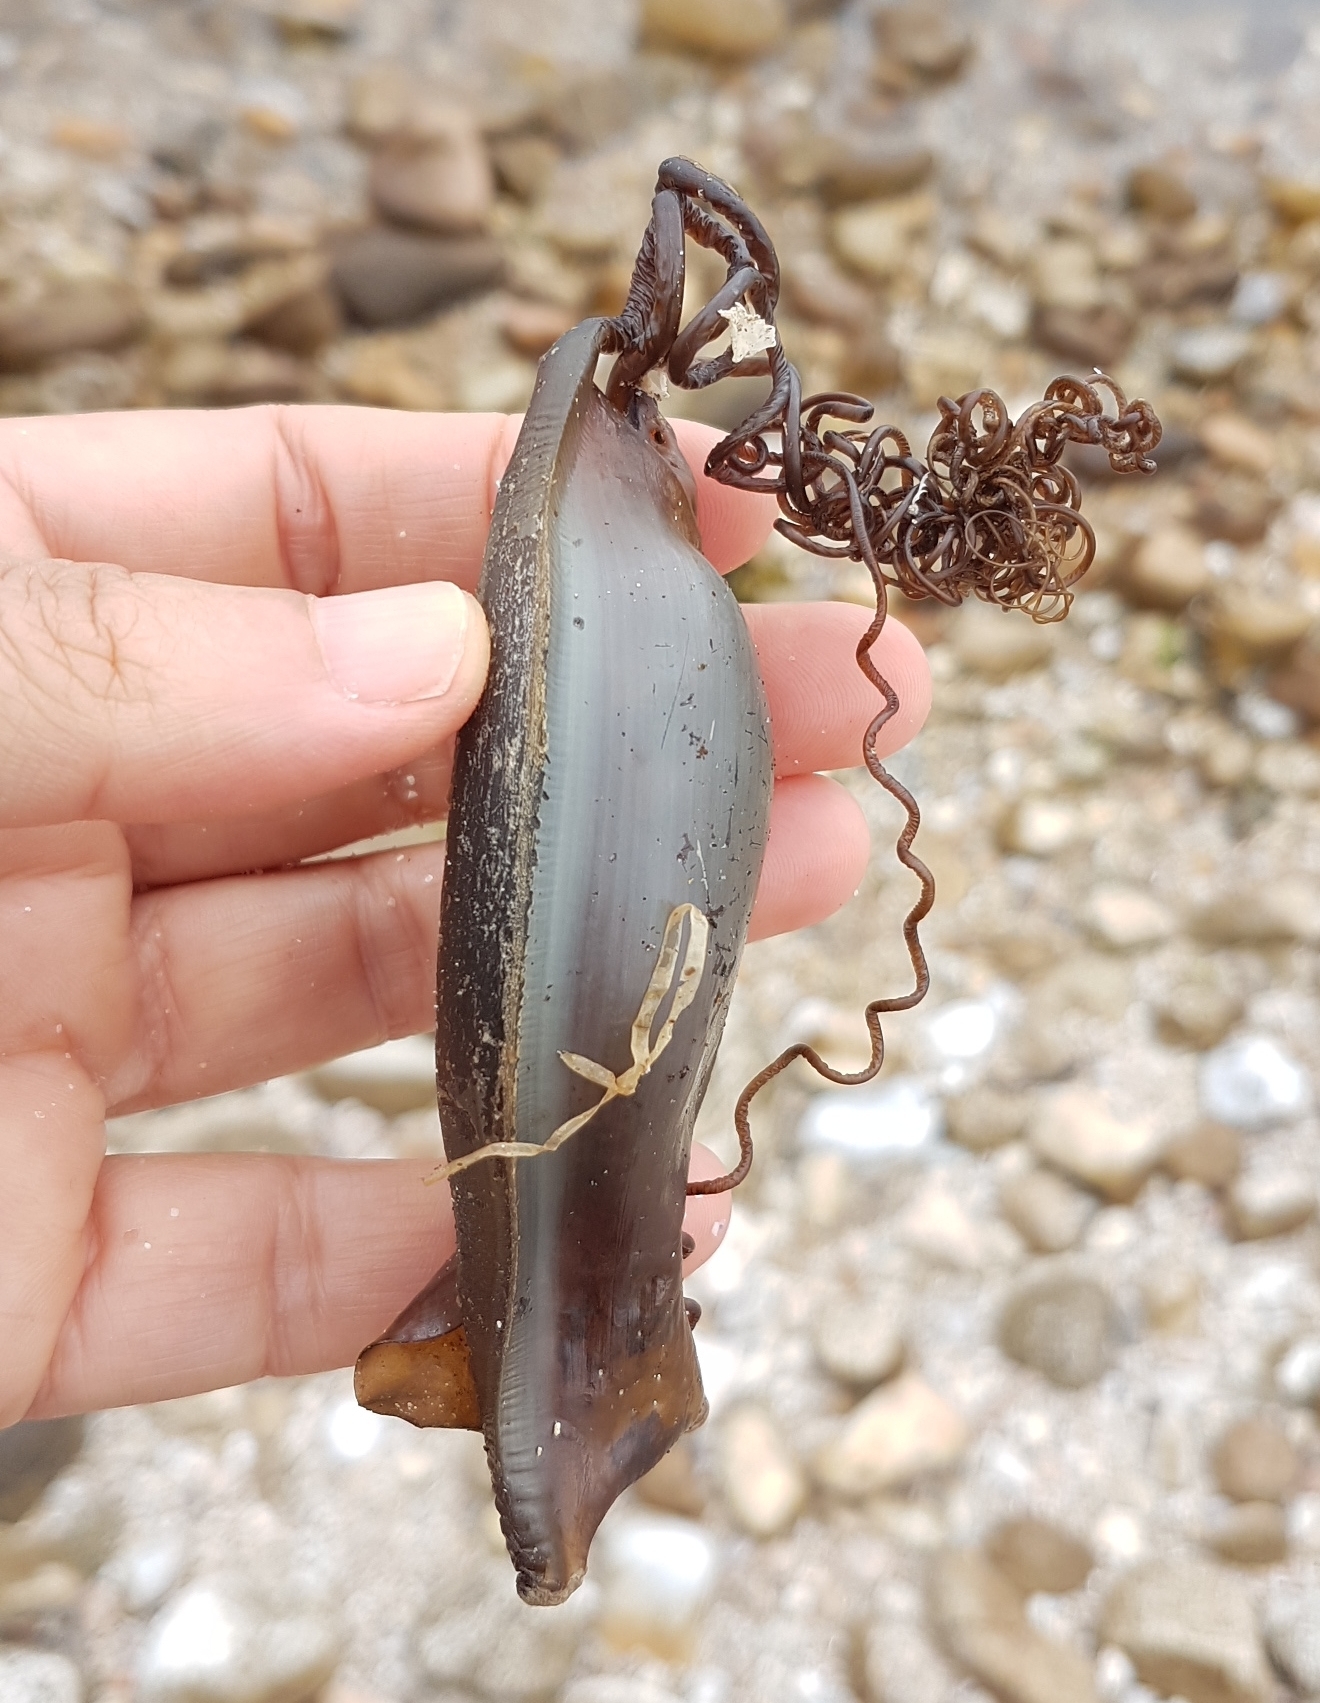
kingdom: Animalia
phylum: Chordata
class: Elasmobranchii
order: Carcharhiniformes
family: Scyliorhinidae
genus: Scyliorhinus
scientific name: Scyliorhinus stellaris
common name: Nursehound
